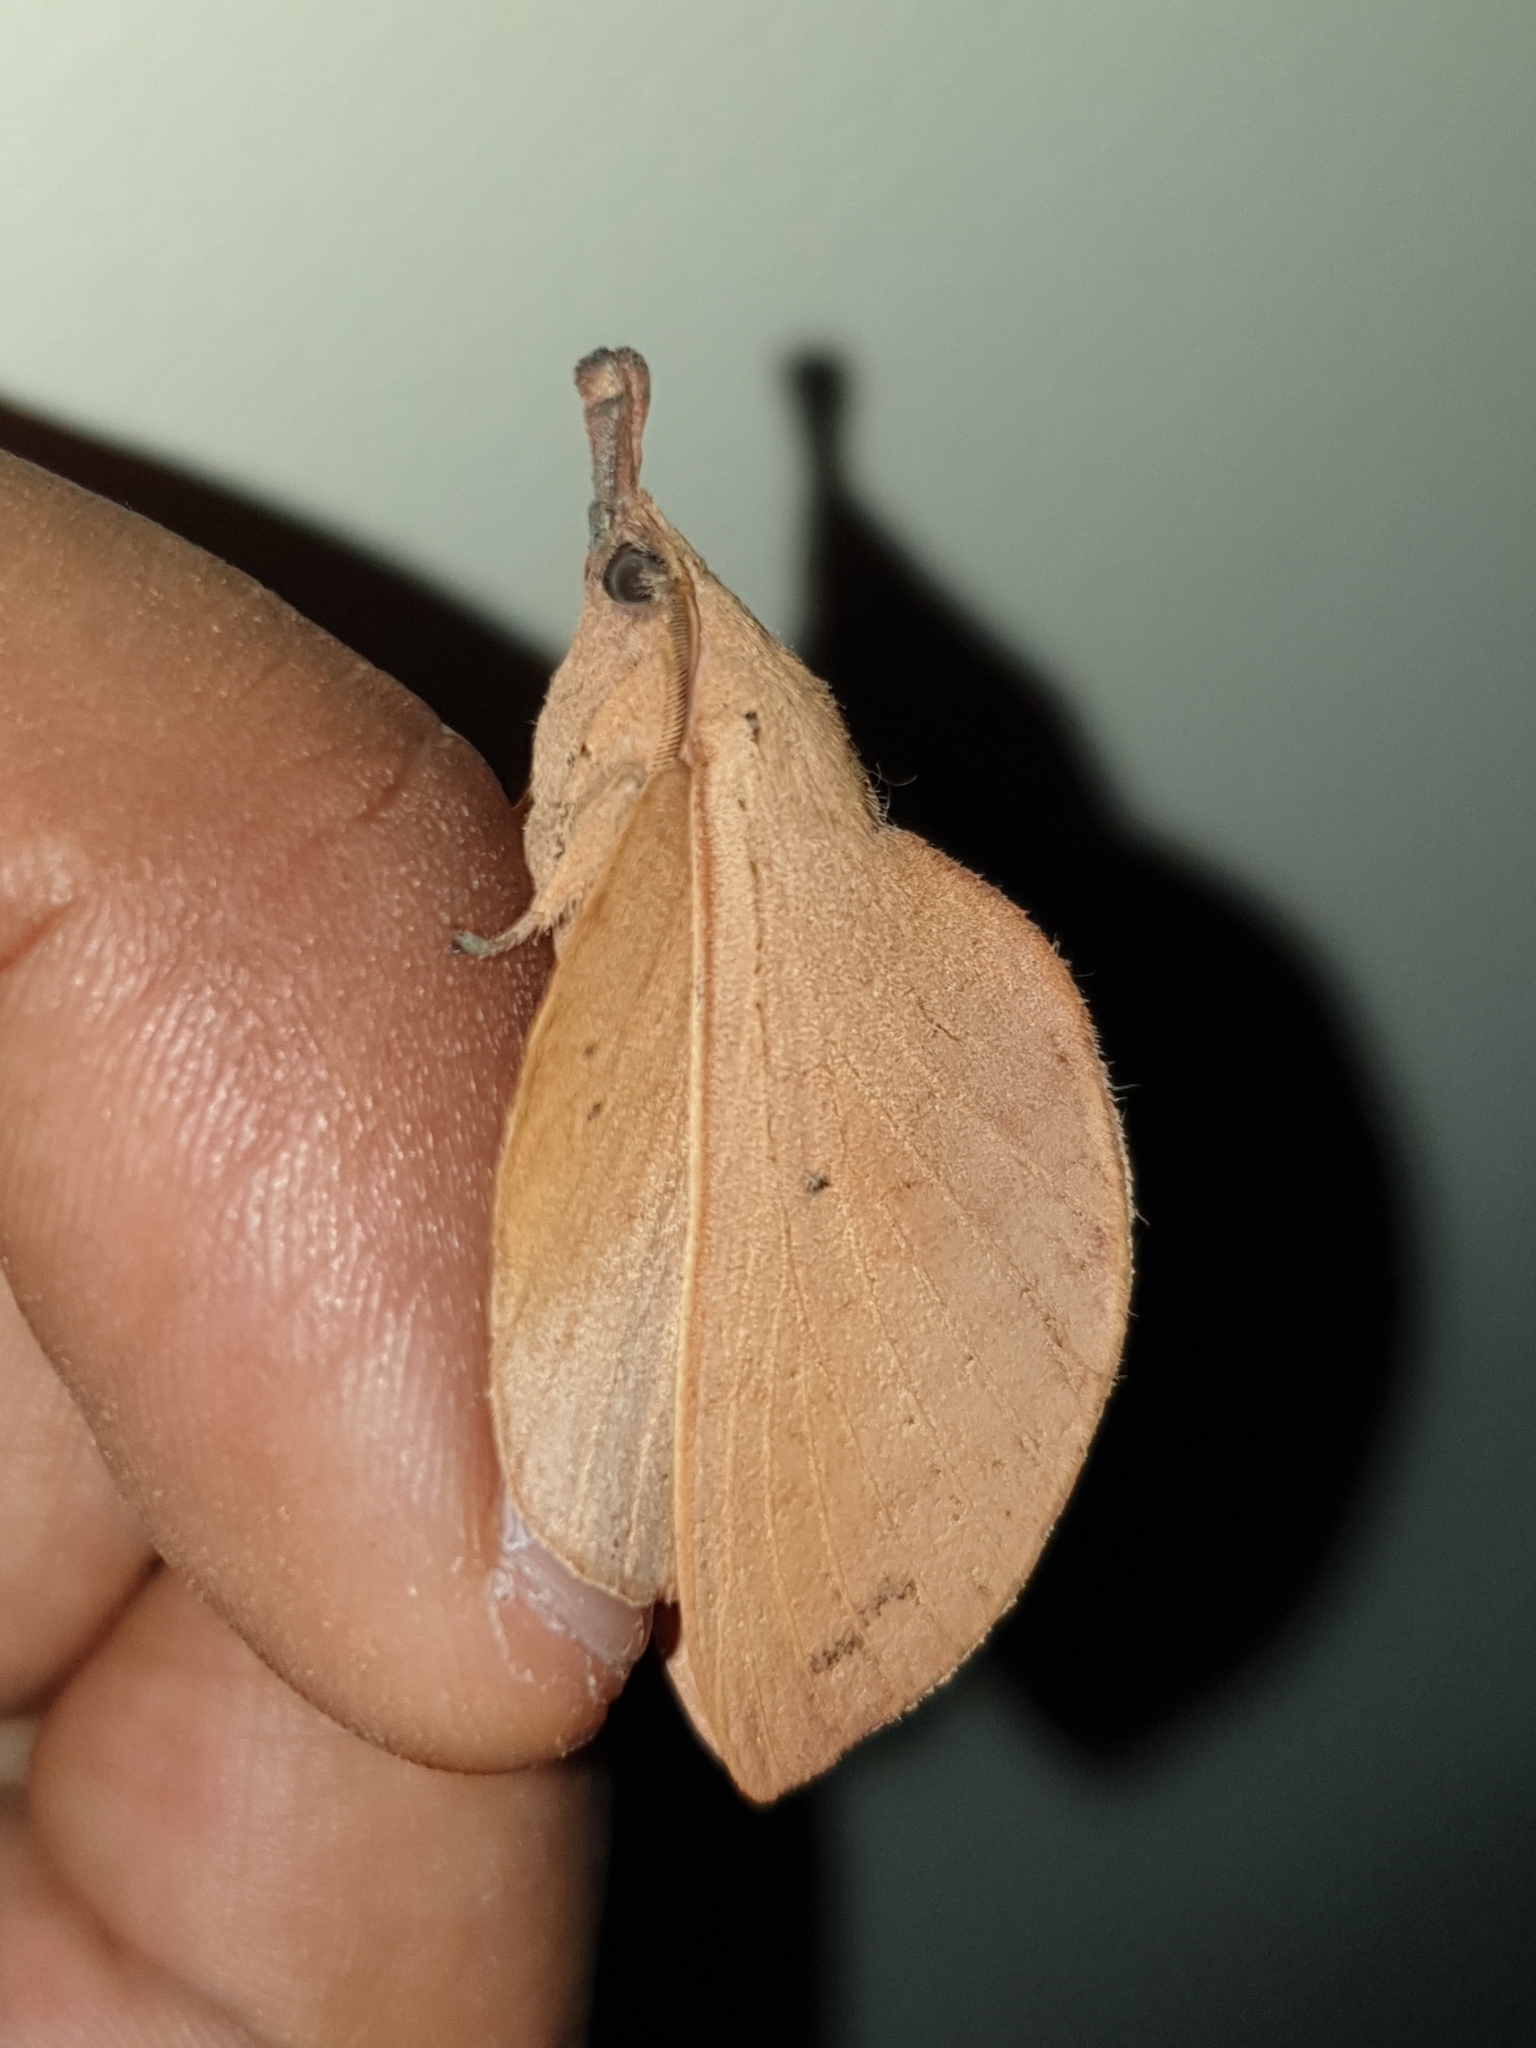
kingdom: Animalia
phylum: Arthropoda
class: Insecta
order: Lepidoptera
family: Lasiocampidae
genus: Gastropacha
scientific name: Gastropacha pardale
